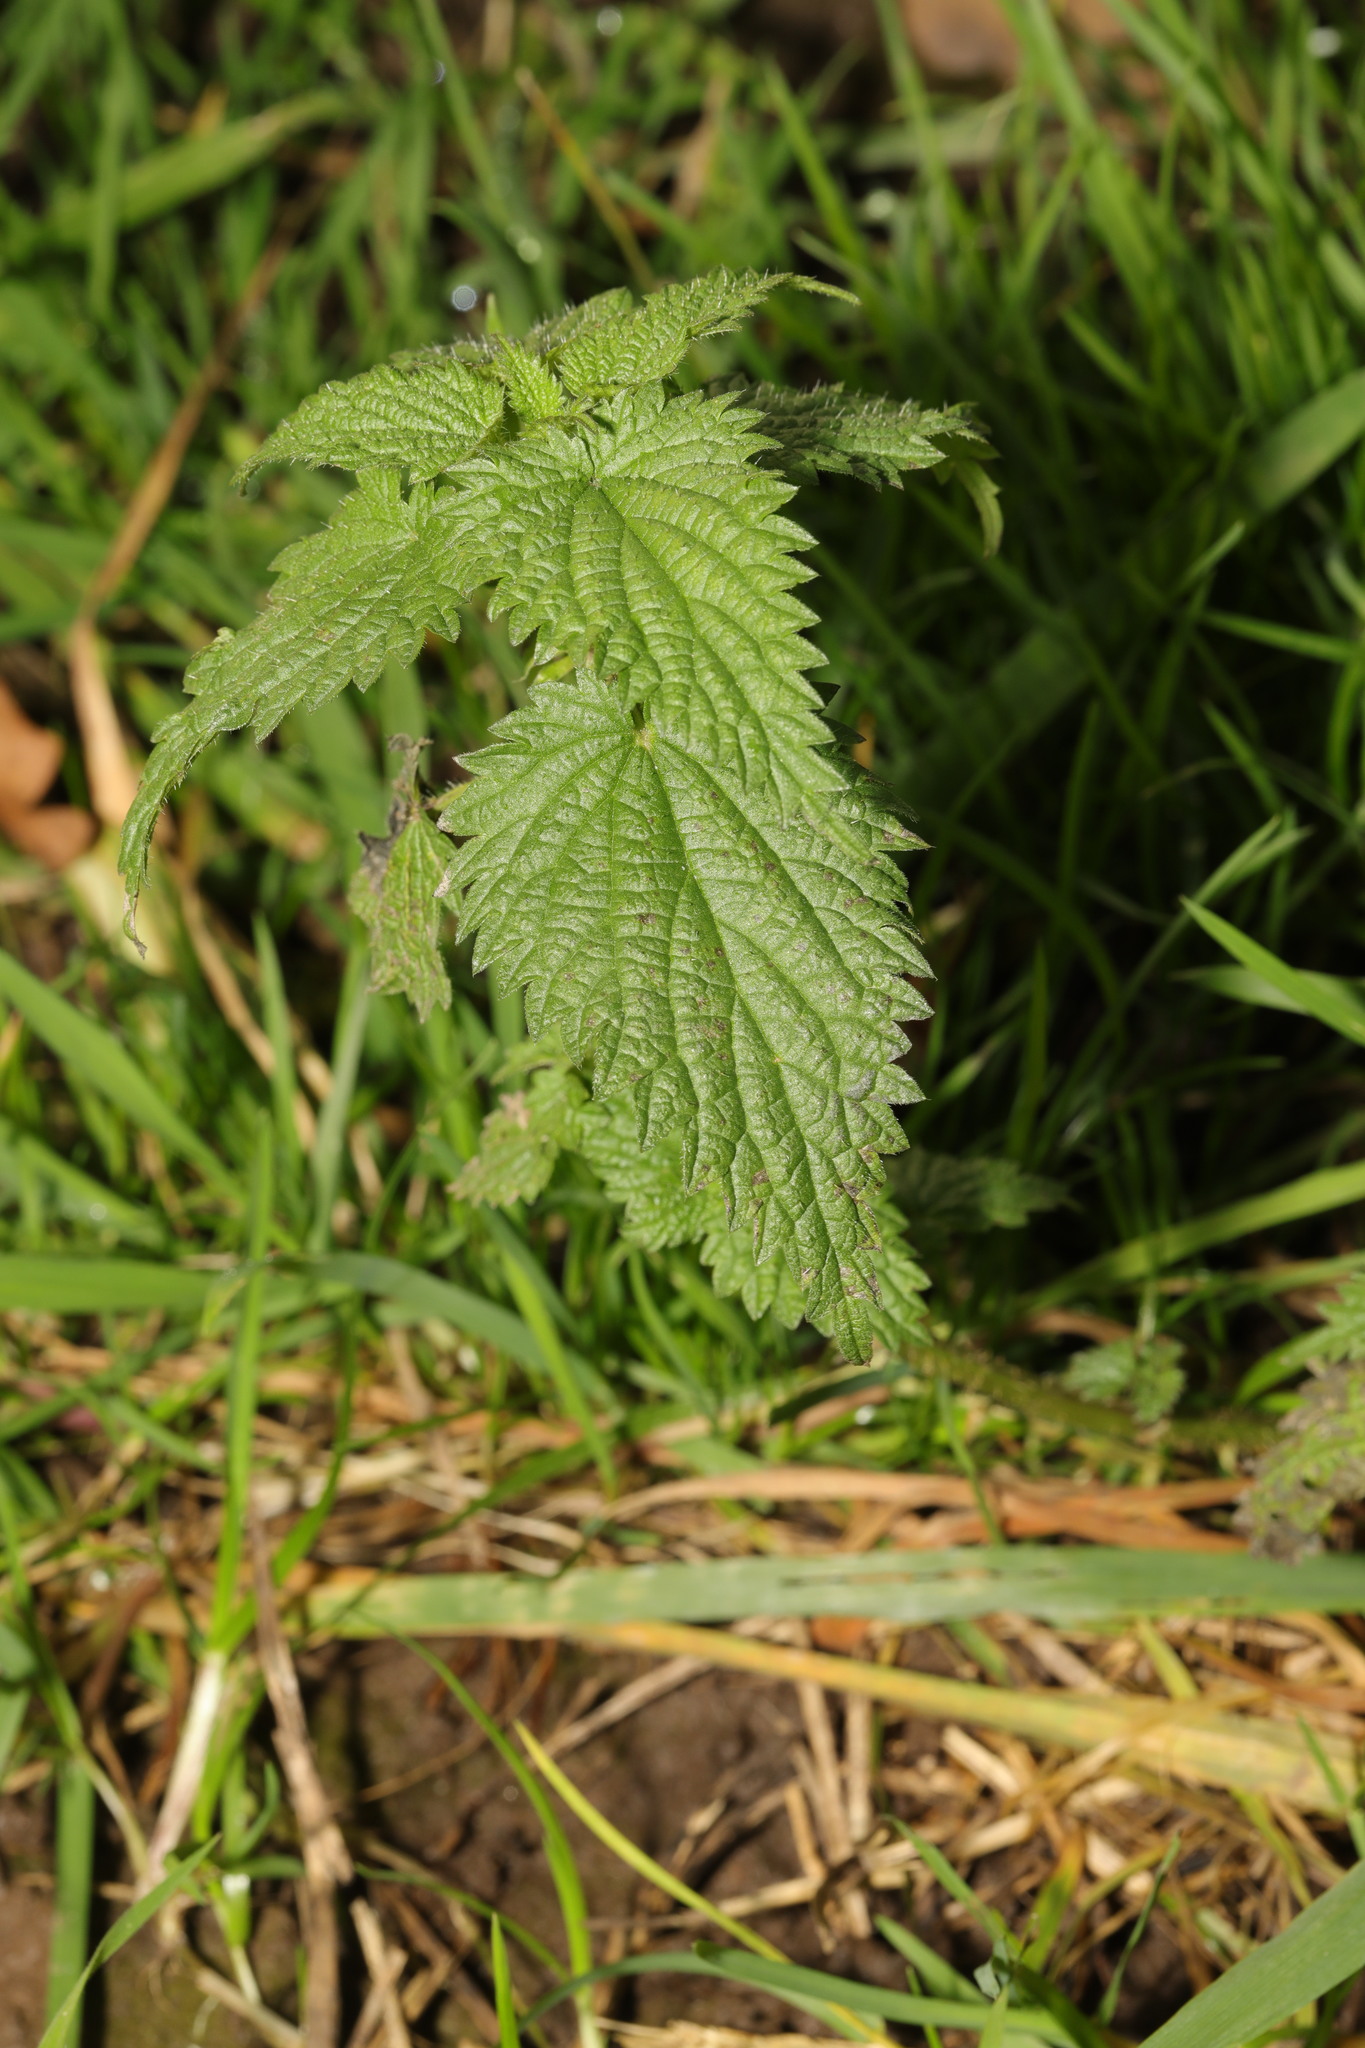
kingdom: Plantae
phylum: Tracheophyta
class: Magnoliopsida
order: Rosales
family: Urticaceae
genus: Urtica
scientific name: Urtica dioica
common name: Common nettle
